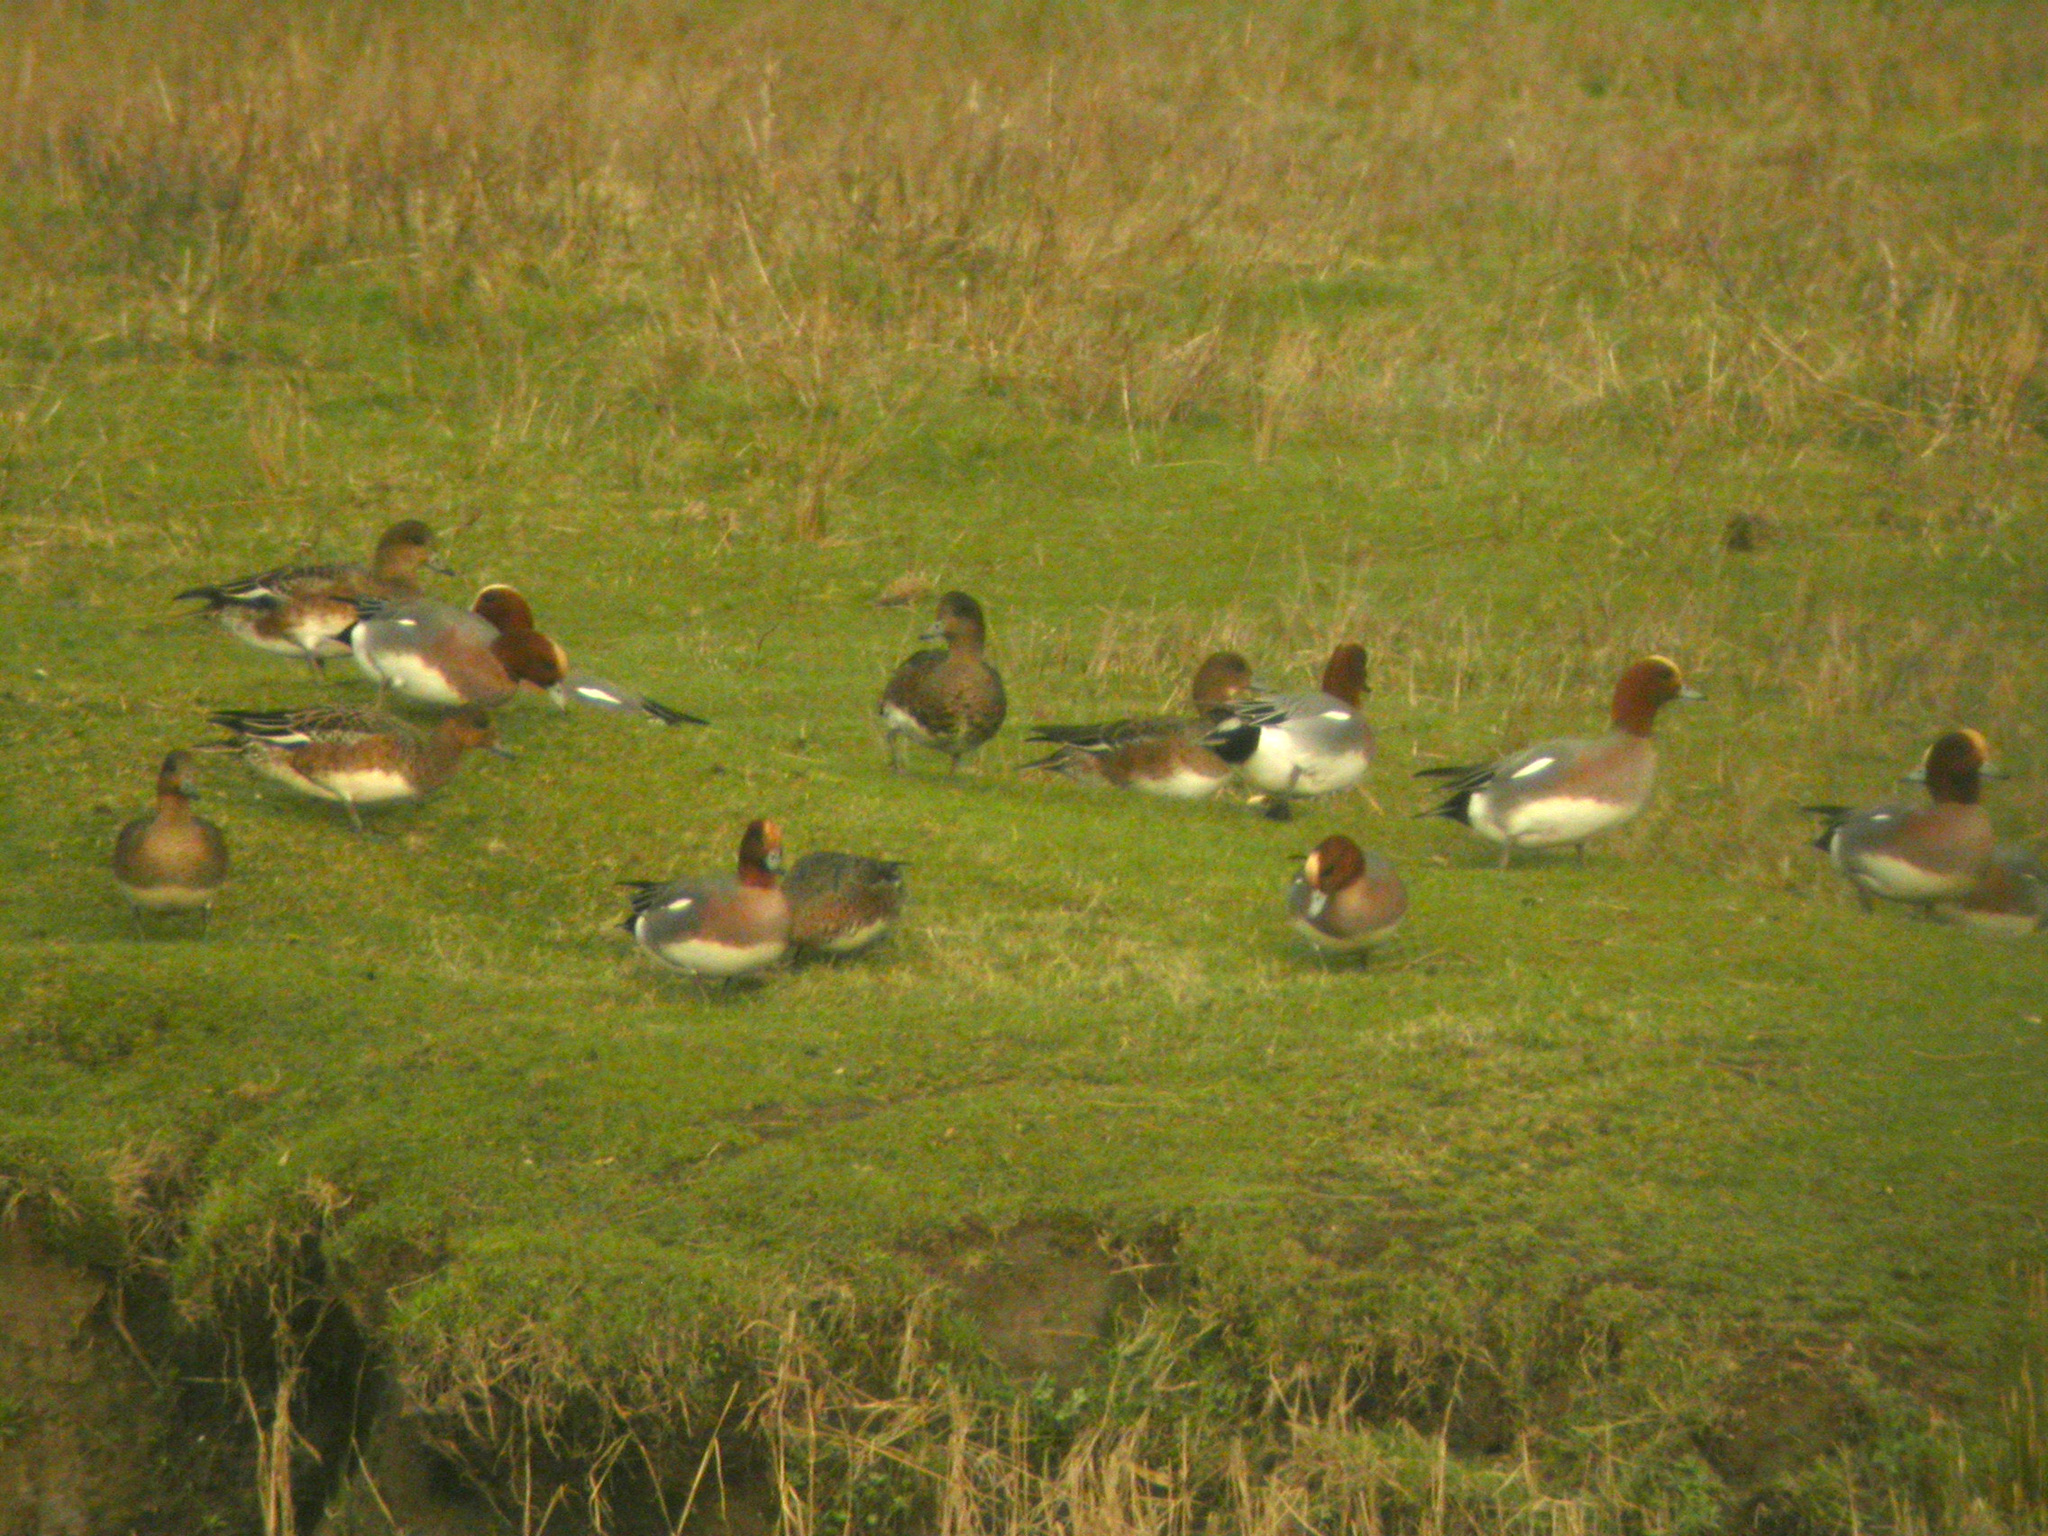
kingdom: Animalia
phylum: Chordata
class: Aves
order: Anseriformes
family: Anatidae
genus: Mareca
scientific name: Mareca penelope
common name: Eurasian wigeon
